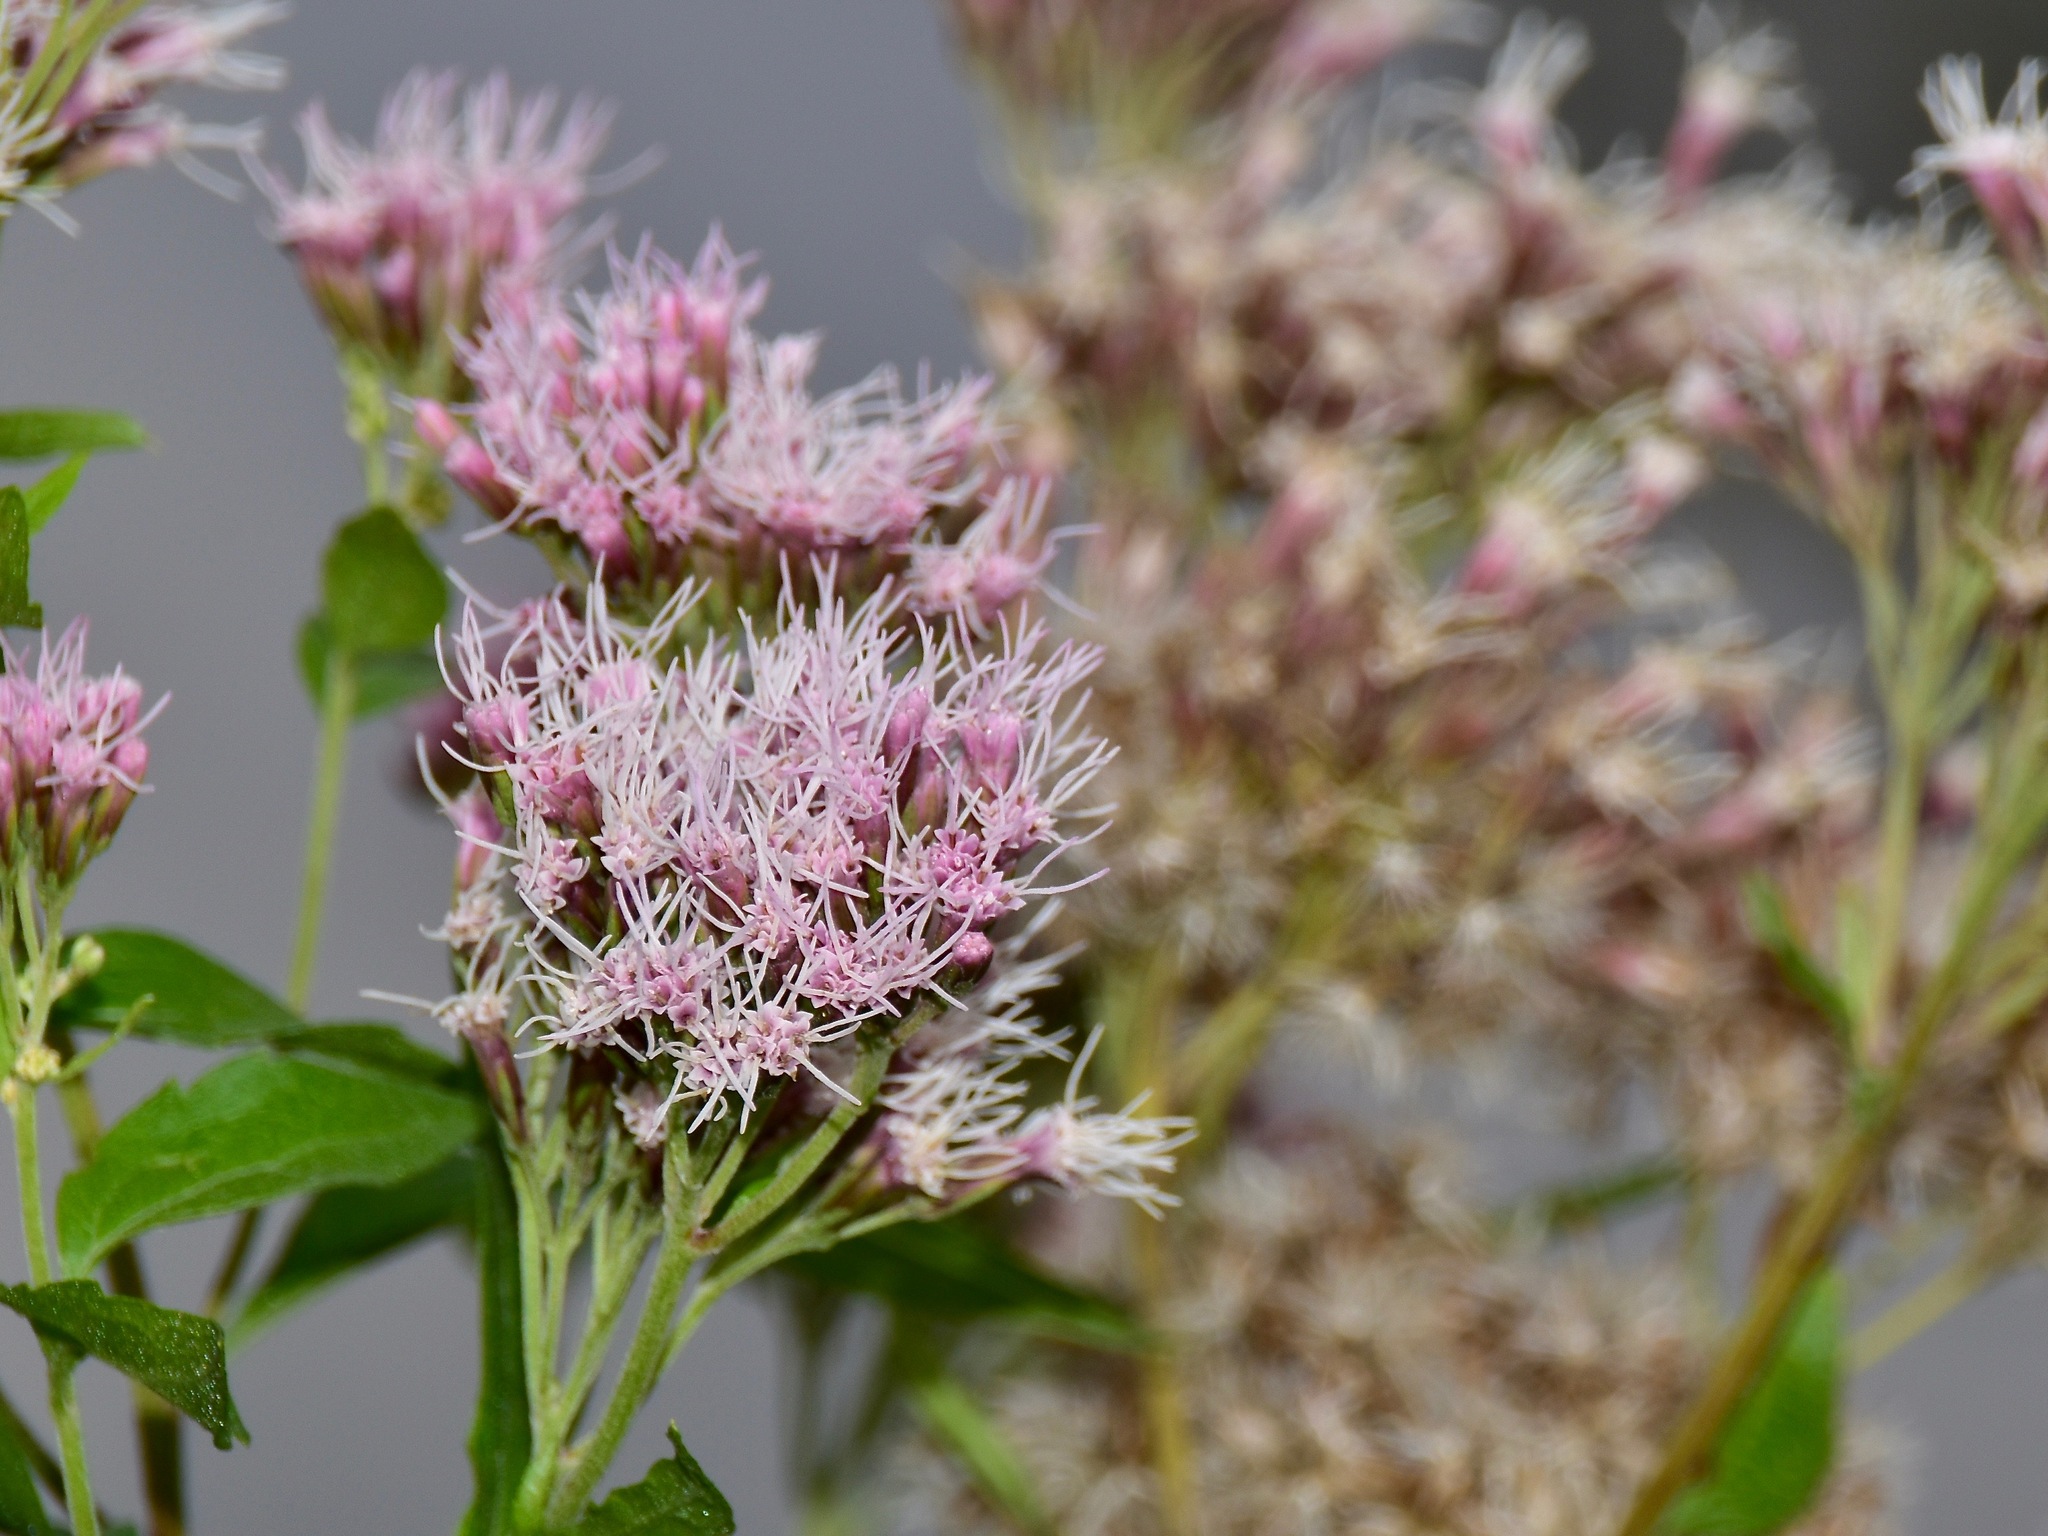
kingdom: Plantae
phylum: Tracheophyta
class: Magnoliopsida
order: Asterales
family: Asteraceae
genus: Eupatorium
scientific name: Eupatorium cannabinum
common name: Hemp-agrimony
